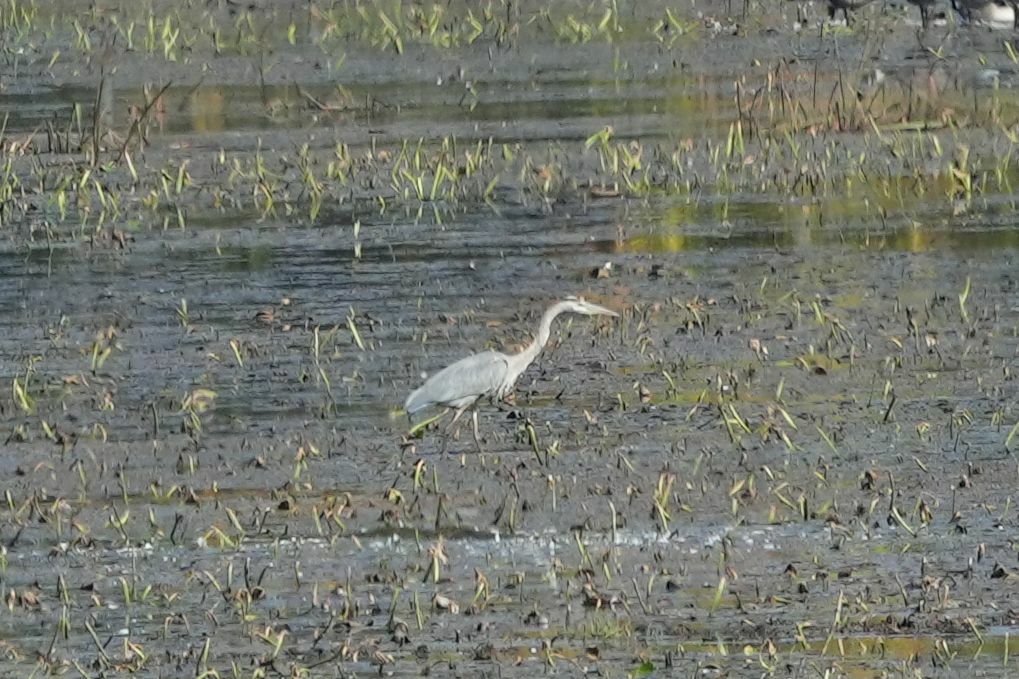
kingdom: Animalia
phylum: Chordata
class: Aves
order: Pelecaniformes
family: Ardeidae
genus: Ardea
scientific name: Ardea herodias
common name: Great blue heron
